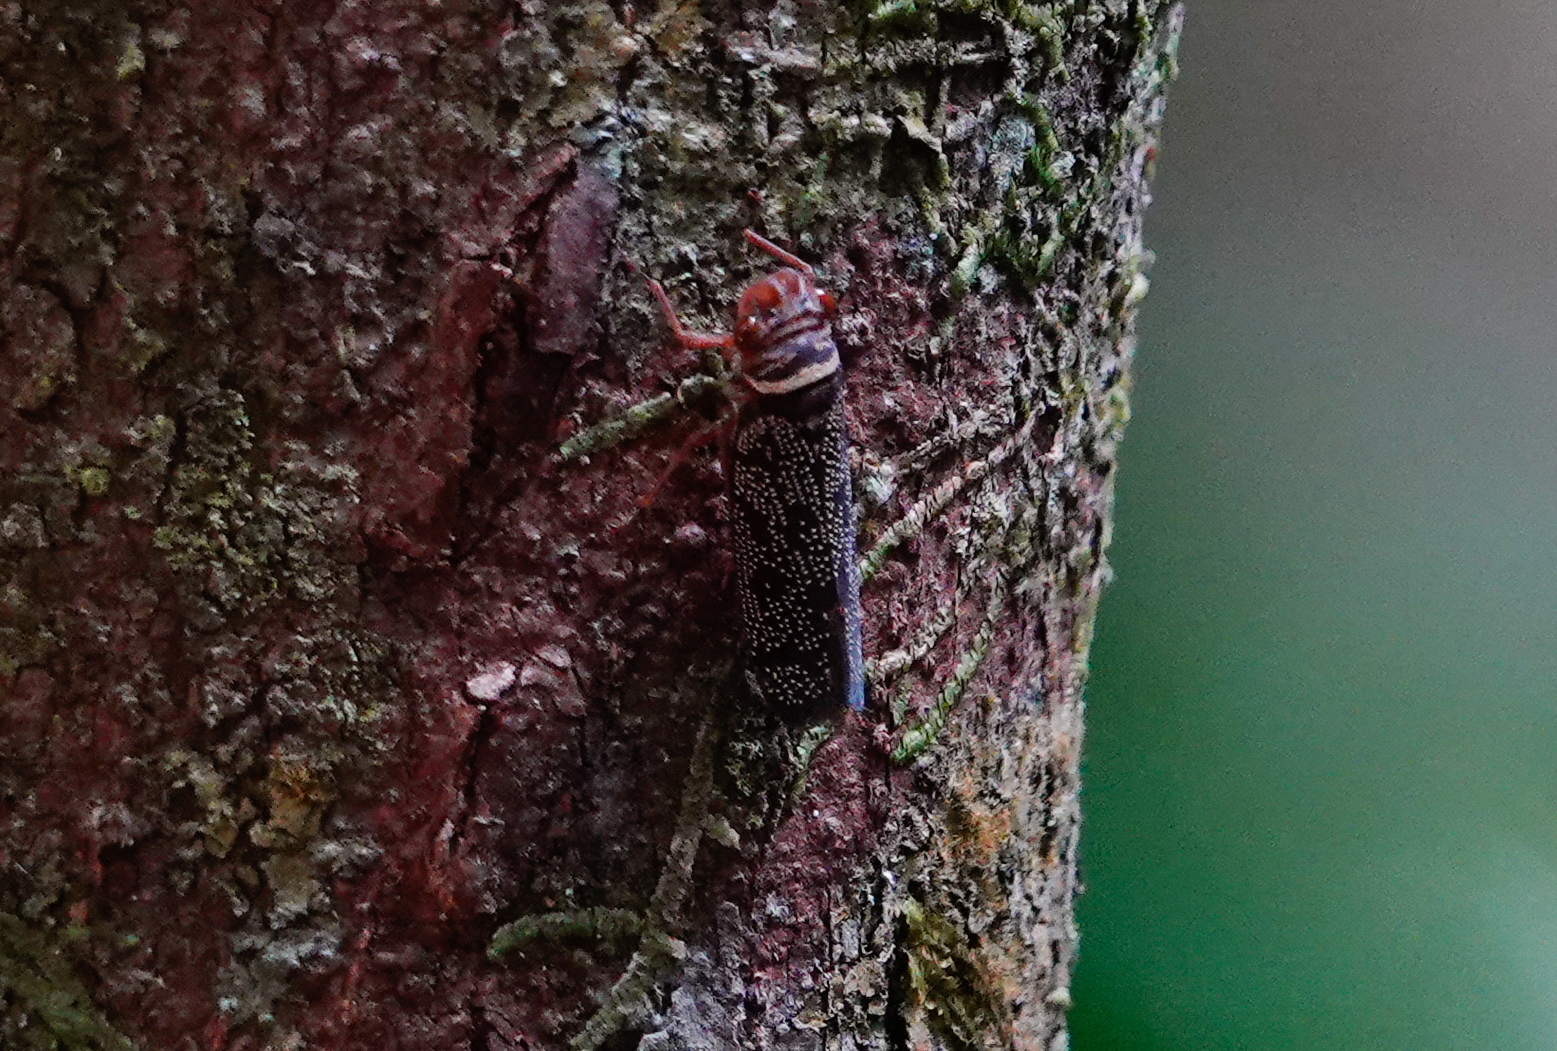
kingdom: Animalia
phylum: Arthropoda
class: Insecta
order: Hemiptera
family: Cicadellidae
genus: Ciccus
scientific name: Ciccus adspersus
